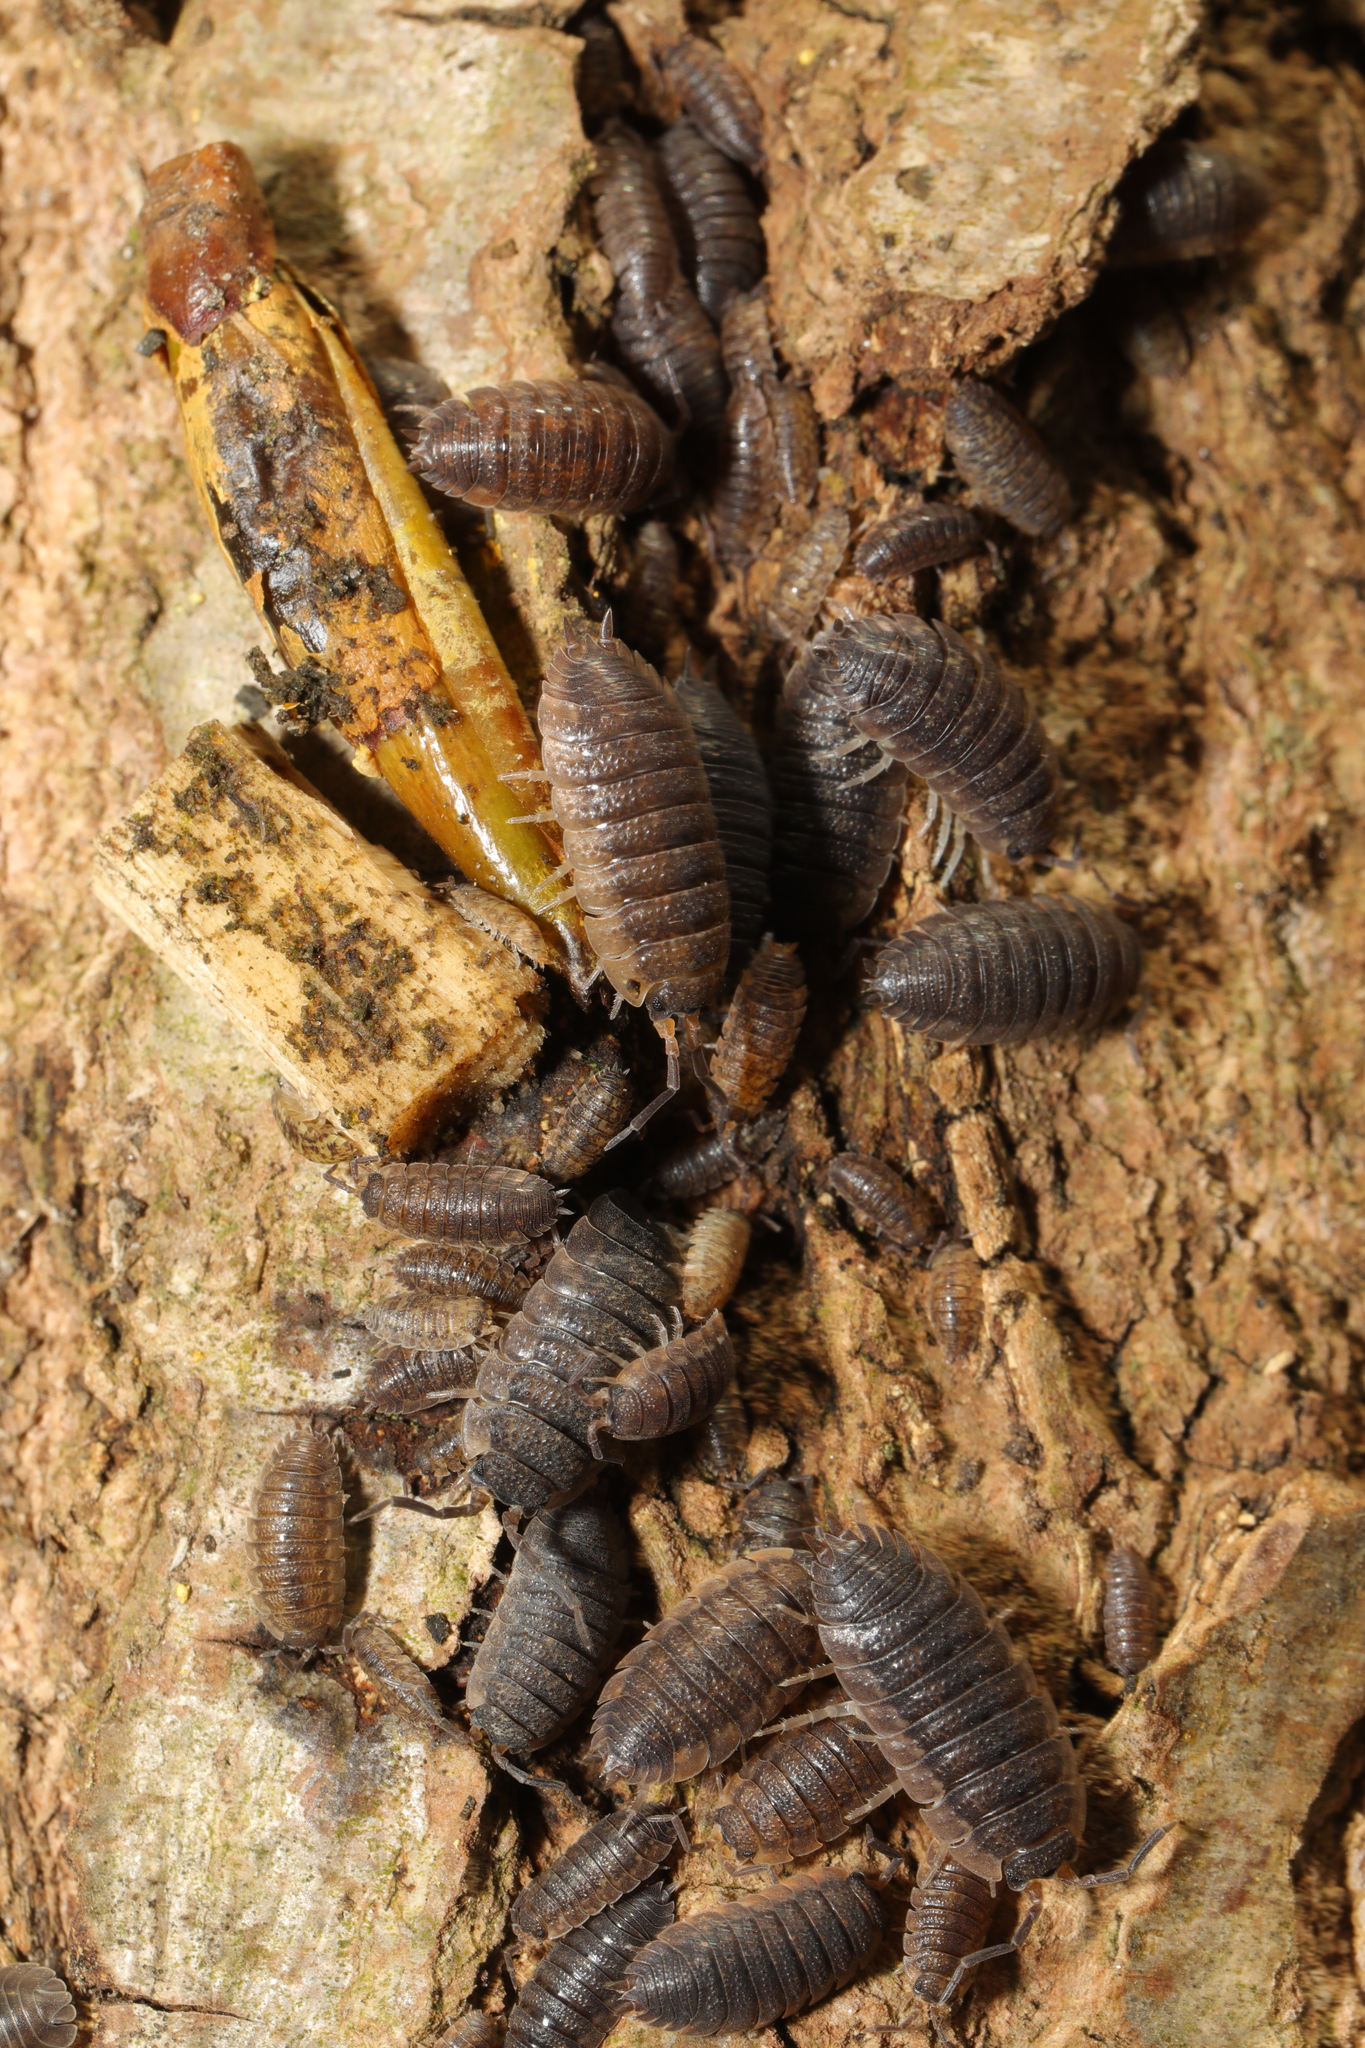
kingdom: Animalia
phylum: Arthropoda
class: Malacostraca
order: Isopoda
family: Porcellionidae
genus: Porcellio
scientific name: Porcellio scaber
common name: Common rough woodlouse
